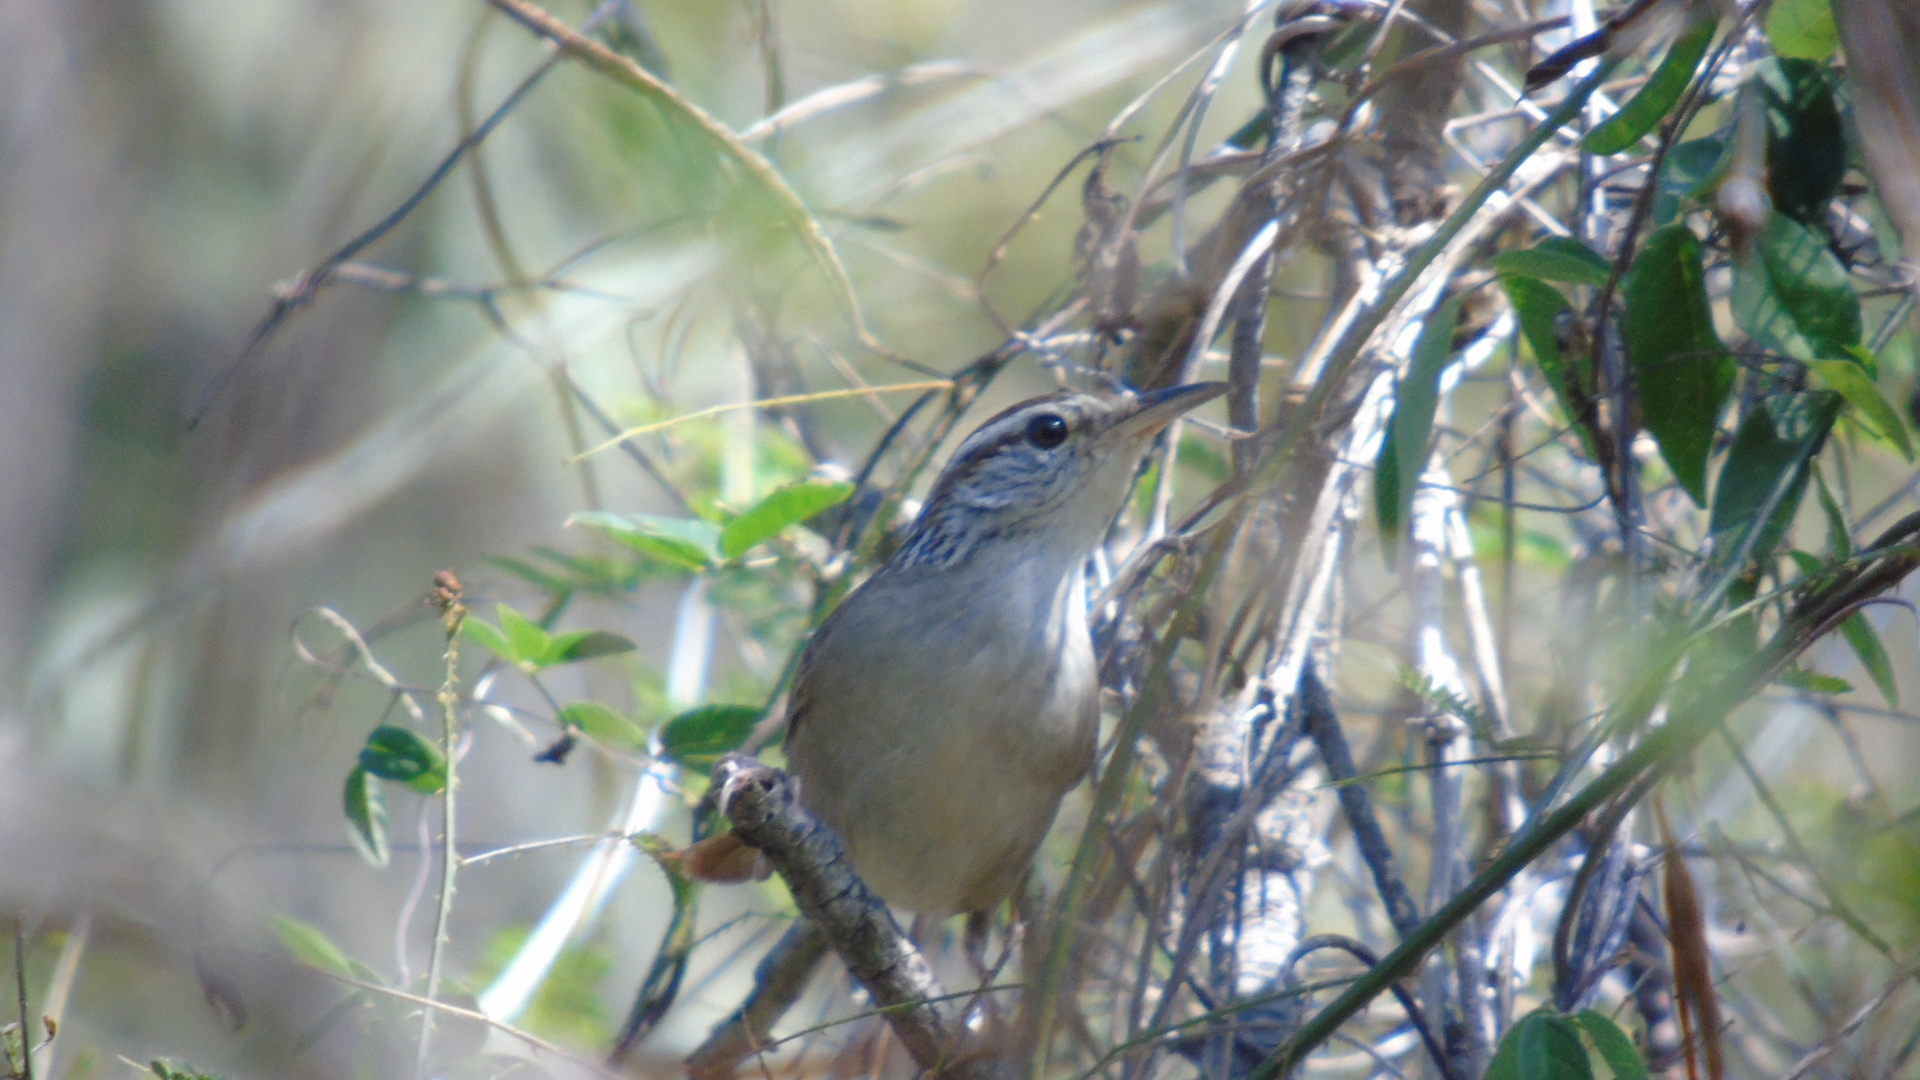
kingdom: Animalia
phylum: Chordata
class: Aves
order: Passeriformes
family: Troglodytidae
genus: Thryophilus
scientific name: Thryophilus sinaloa
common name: Sinaloa wren
